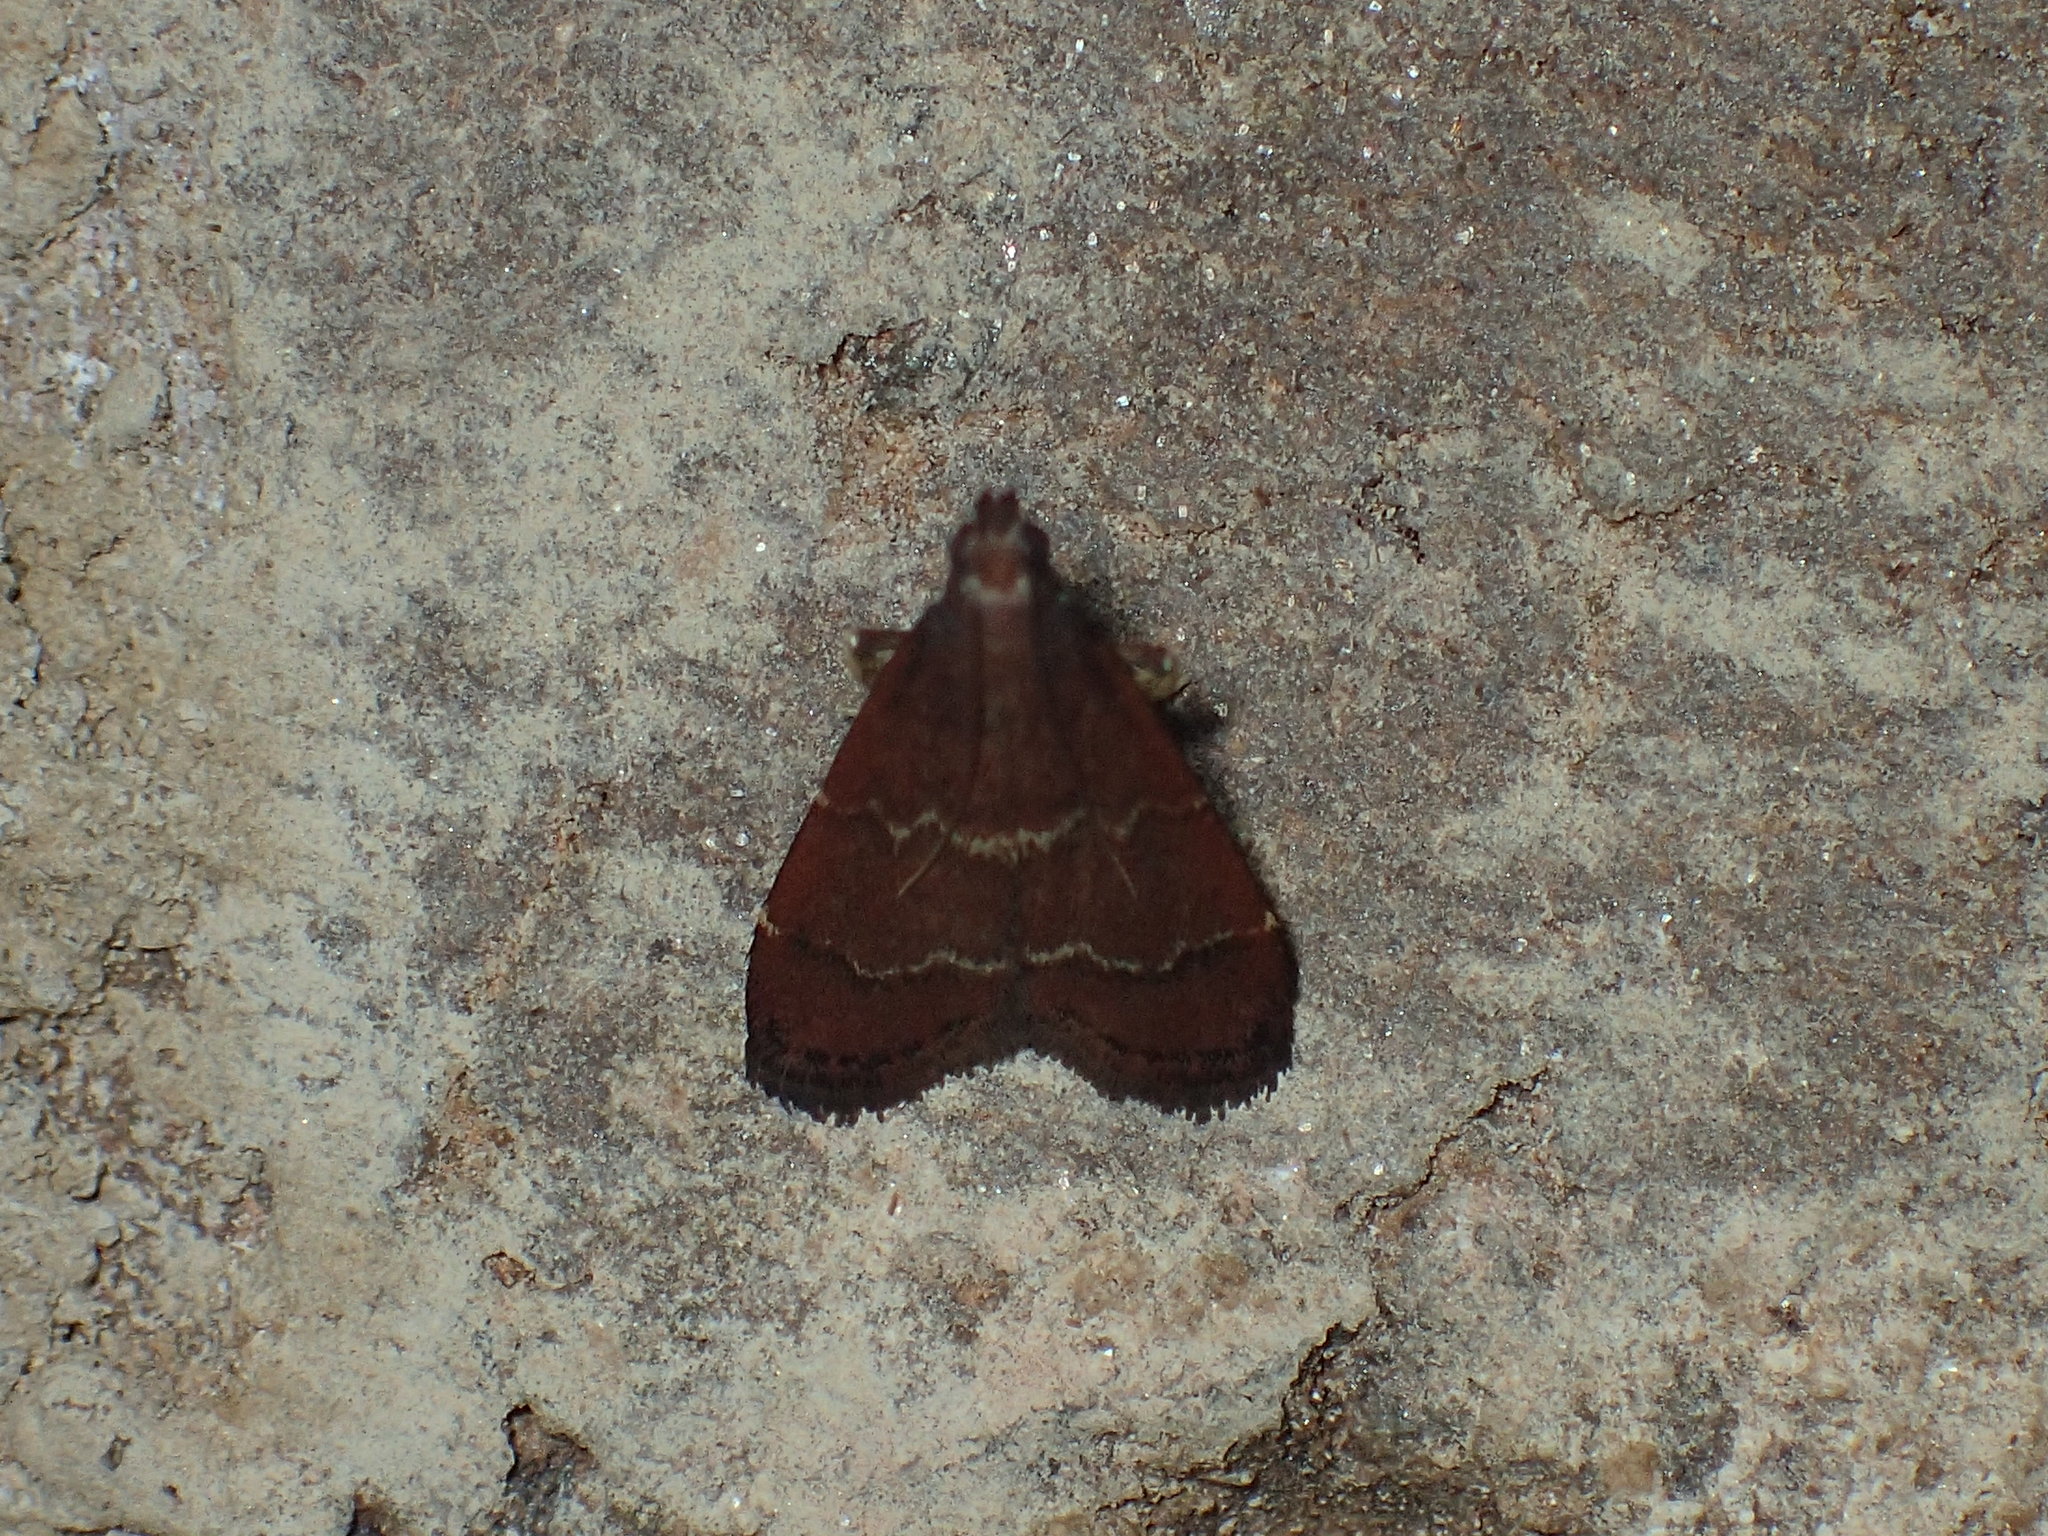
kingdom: Animalia
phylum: Arthropoda
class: Insecta
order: Lepidoptera
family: Pyralidae
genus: Arta
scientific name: Arta
